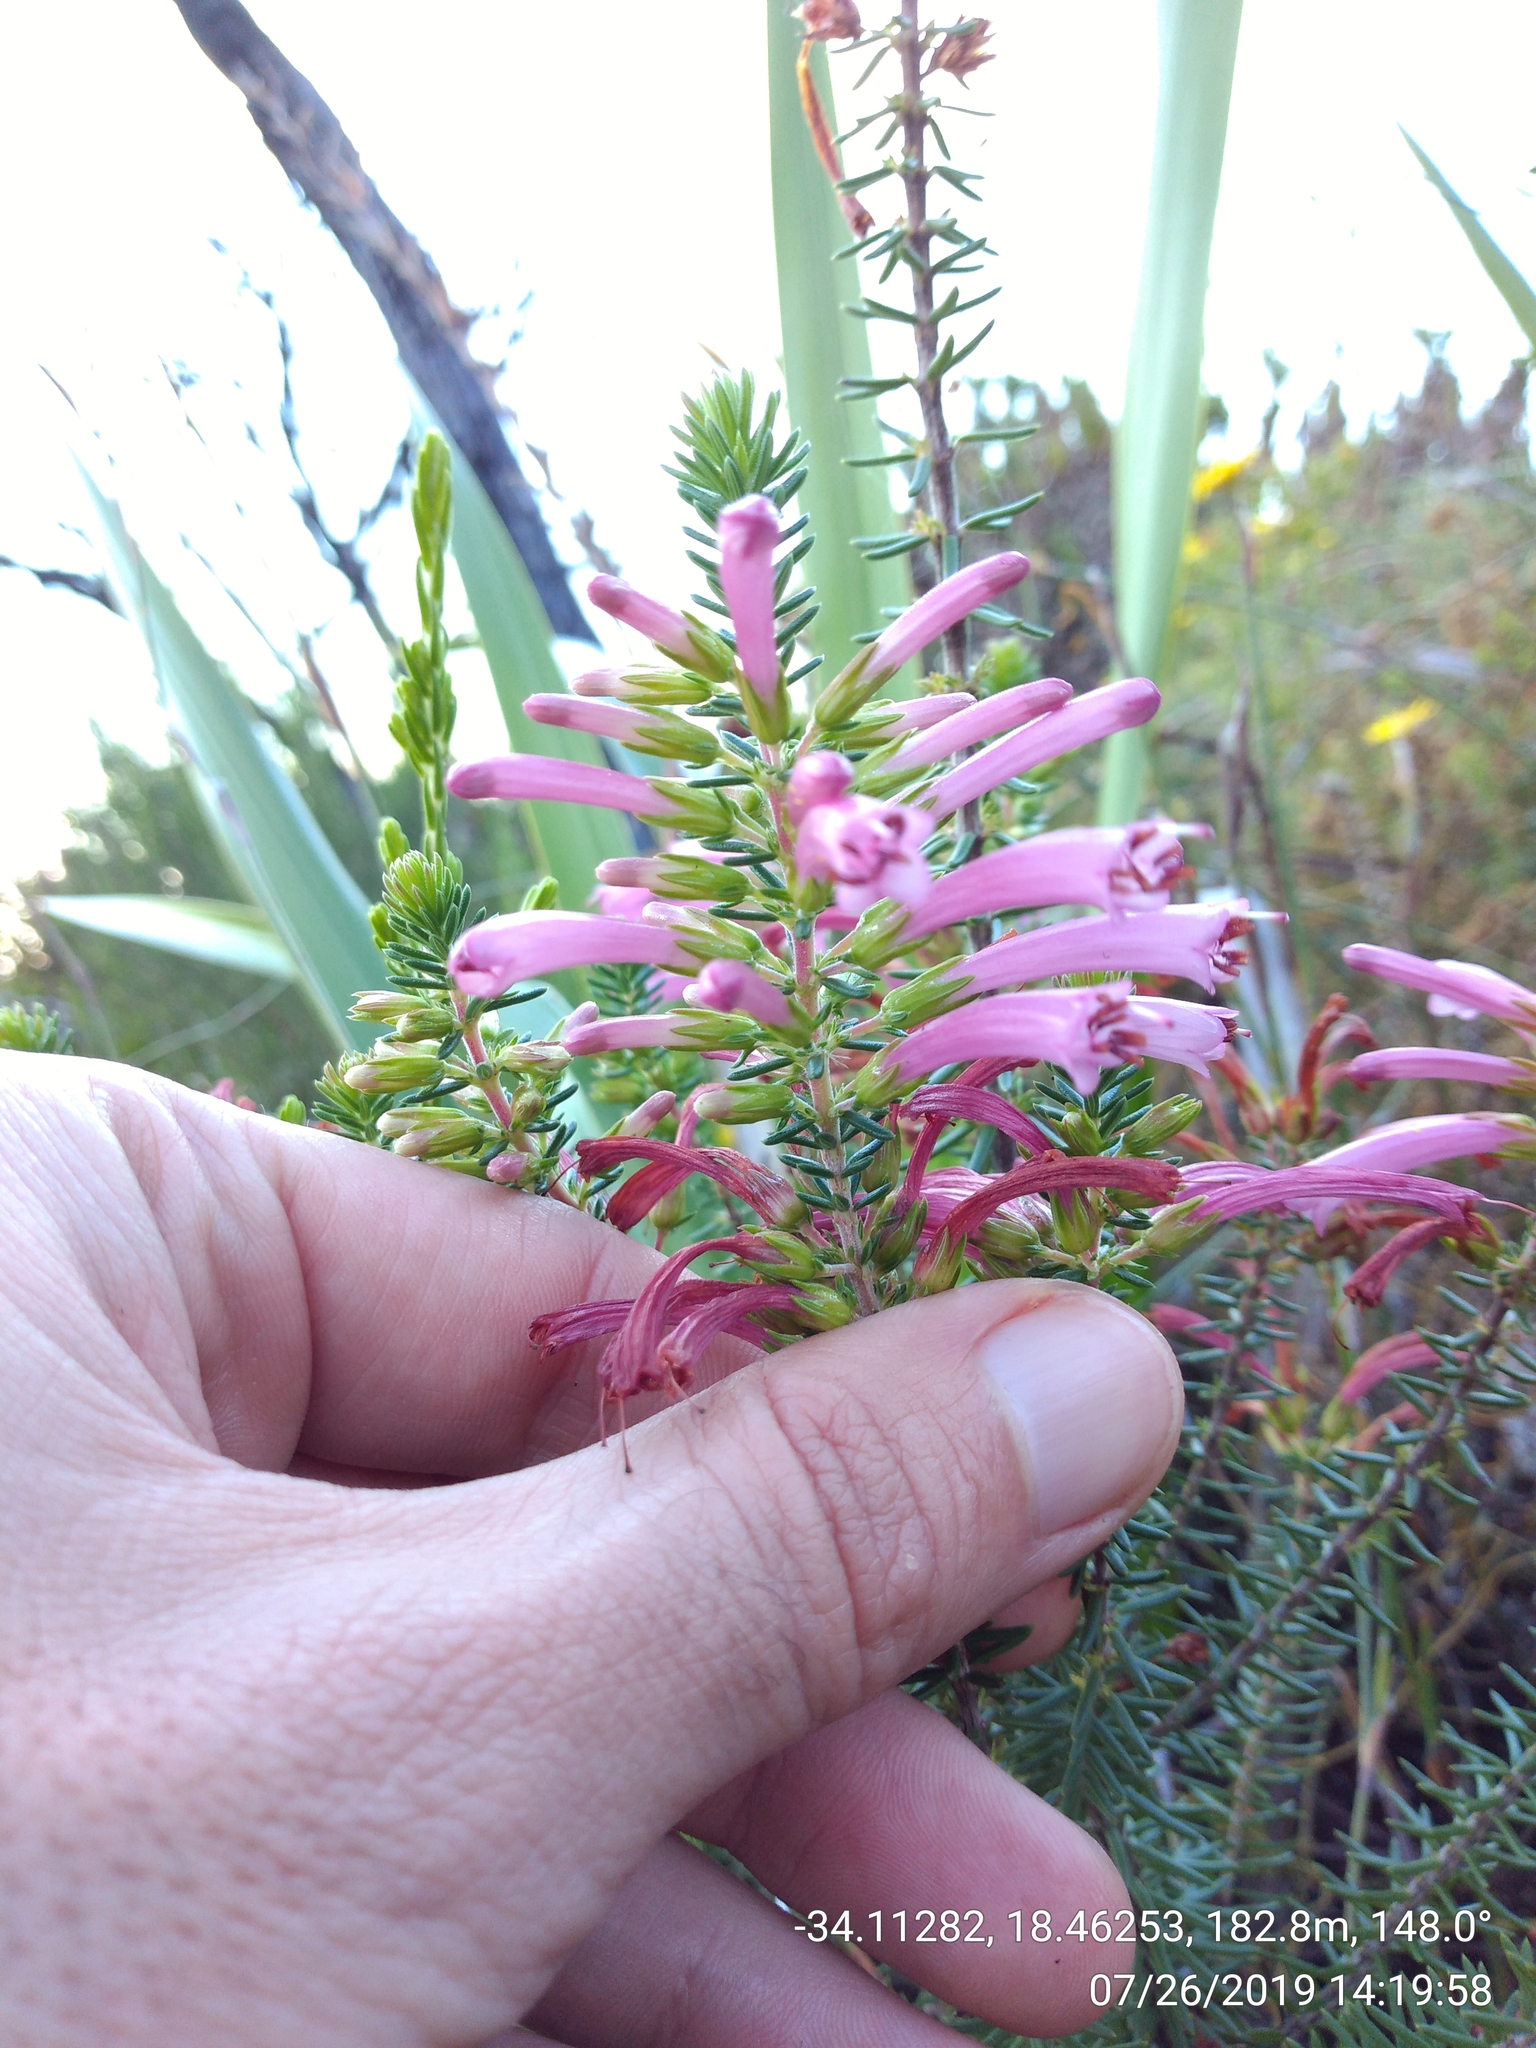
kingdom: Plantae
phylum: Tracheophyta
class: Magnoliopsida
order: Ericales
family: Ericaceae
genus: Erica
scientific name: Erica abietina
